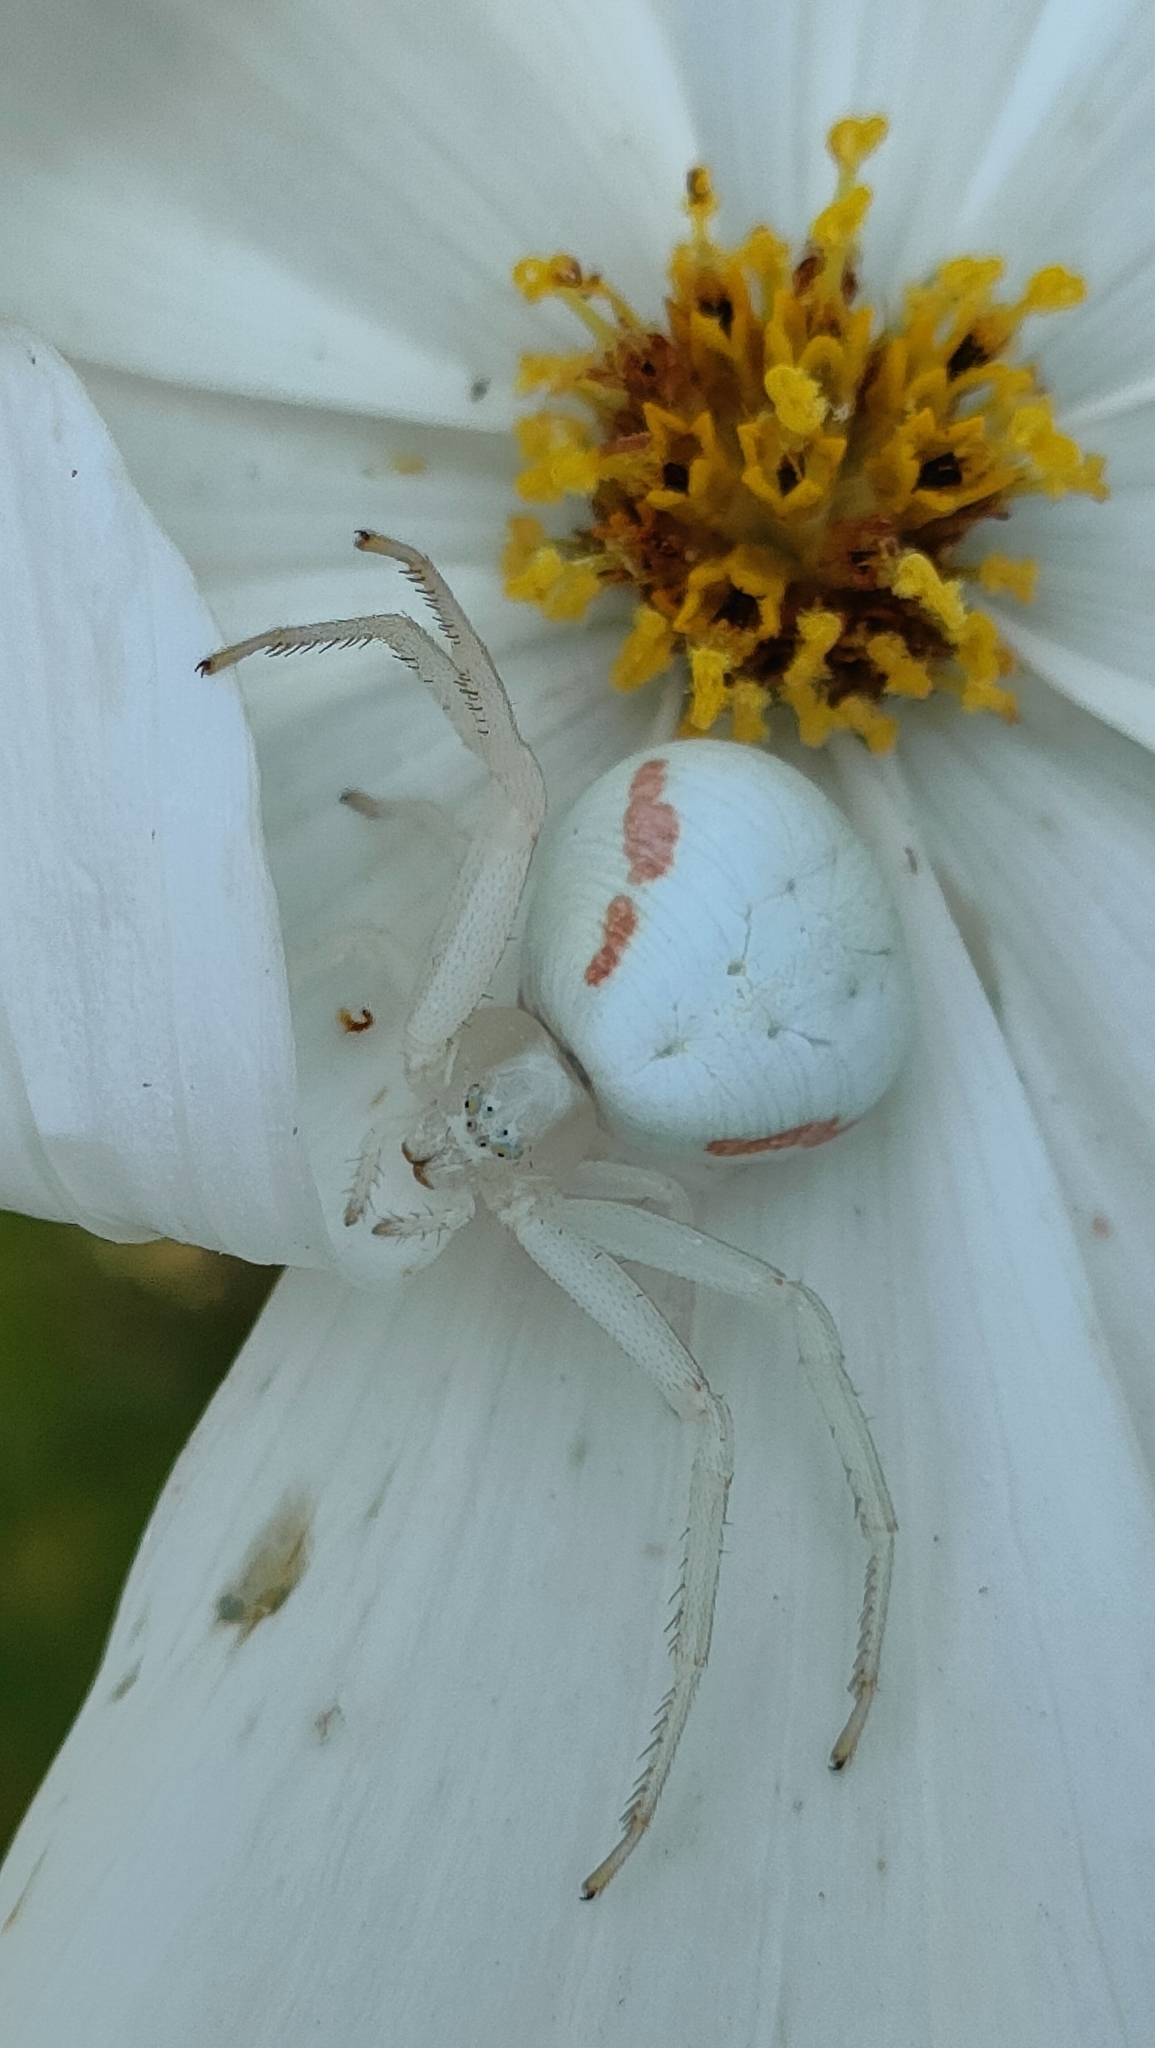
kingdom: Animalia
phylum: Arthropoda
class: Arachnida
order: Araneae
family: Thomisidae
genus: Misumena
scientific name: Misumena vatia
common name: Goldenrod crab spider
